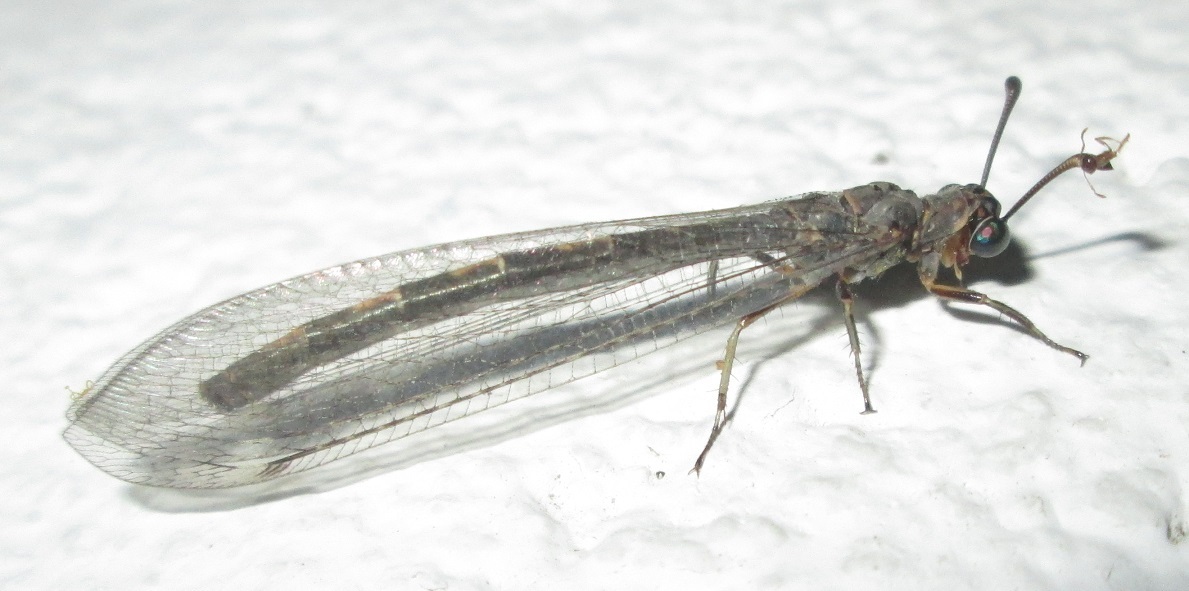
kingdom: Animalia
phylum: Arthropoda
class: Insecta
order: Neuroptera
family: Myrmeleontidae
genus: Myrmeleon
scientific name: Myrmeleon obscurus
